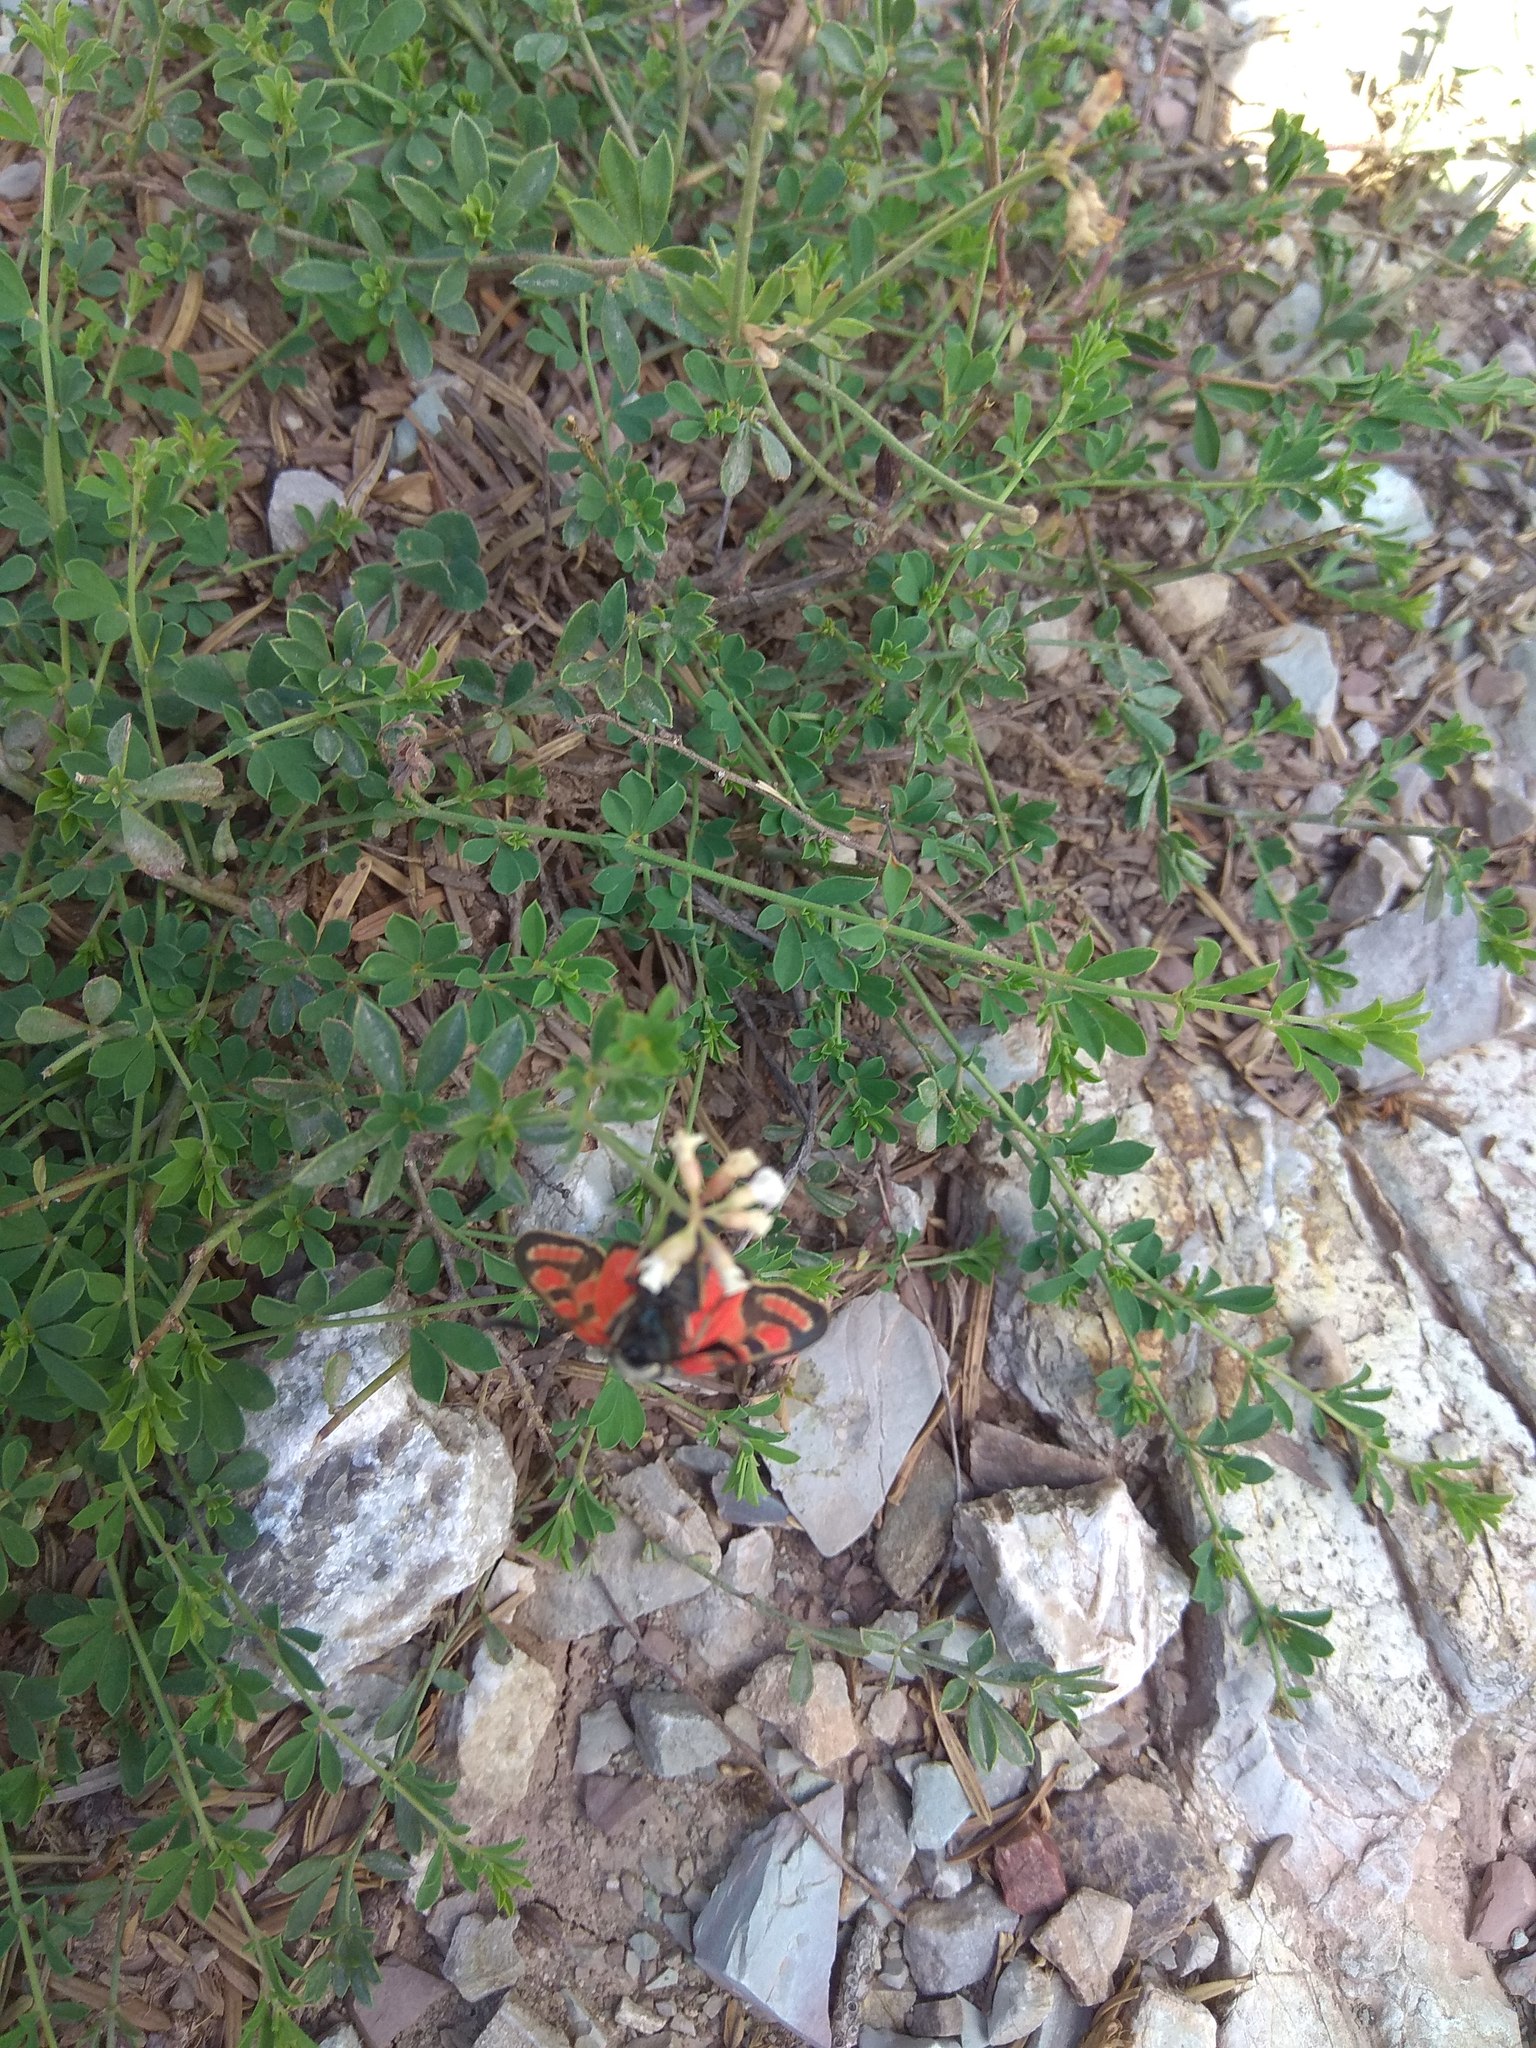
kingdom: Animalia
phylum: Arthropoda
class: Insecta
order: Lepidoptera
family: Zygaenidae
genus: Zygaena
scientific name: Zygaena carniolica
